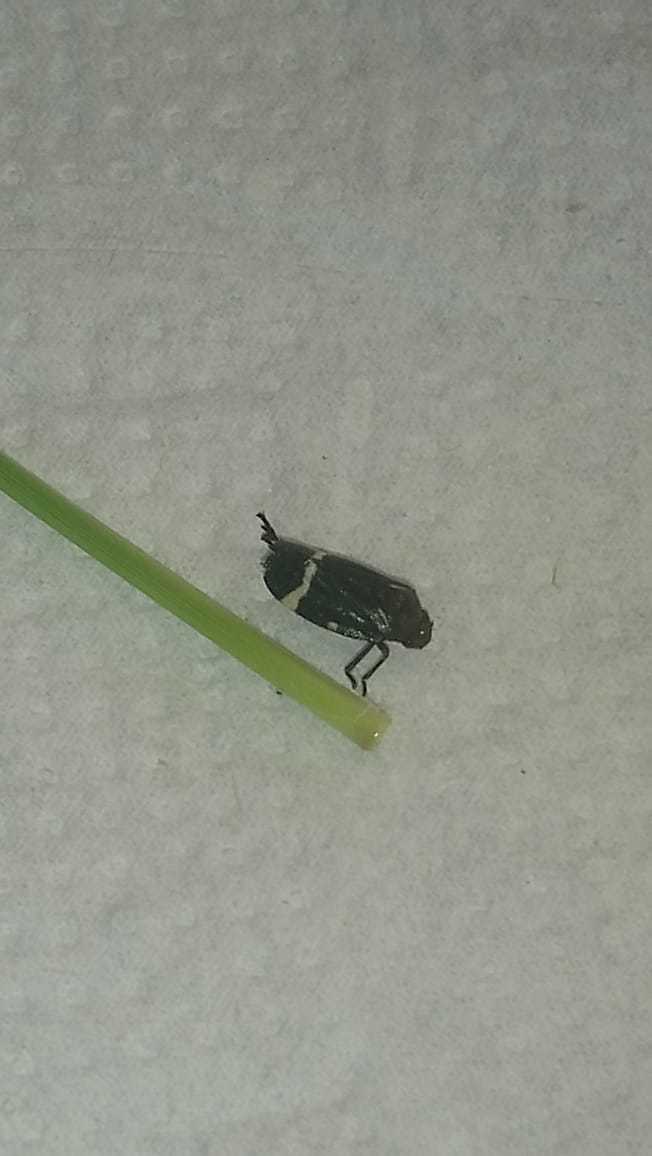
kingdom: Animalia
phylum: Arthropoda
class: Insecta
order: Hemiptera
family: Cercopidae
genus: Notozulia
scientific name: Notozulia entreriana
